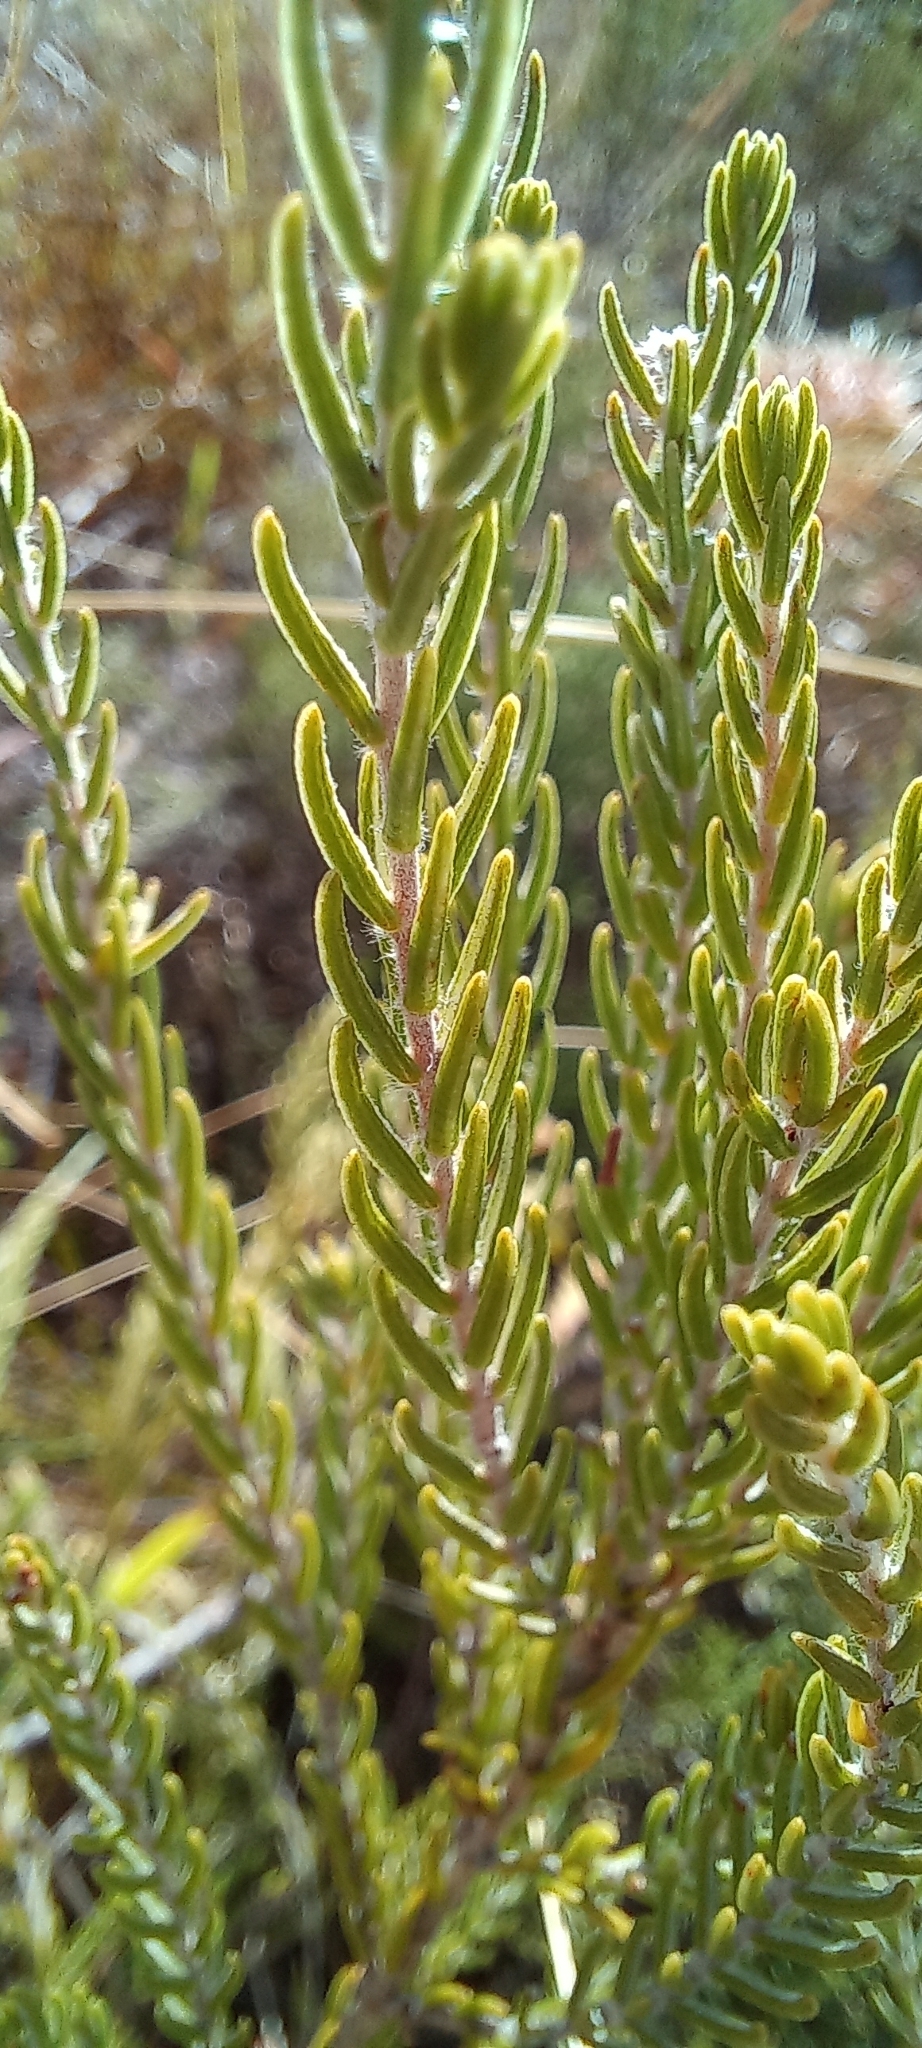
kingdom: Plantae
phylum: Tracheophyta
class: Magnoliopsida
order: Malvales
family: Thymelaeaceae
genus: Passerina
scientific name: Passerina corymbosa
